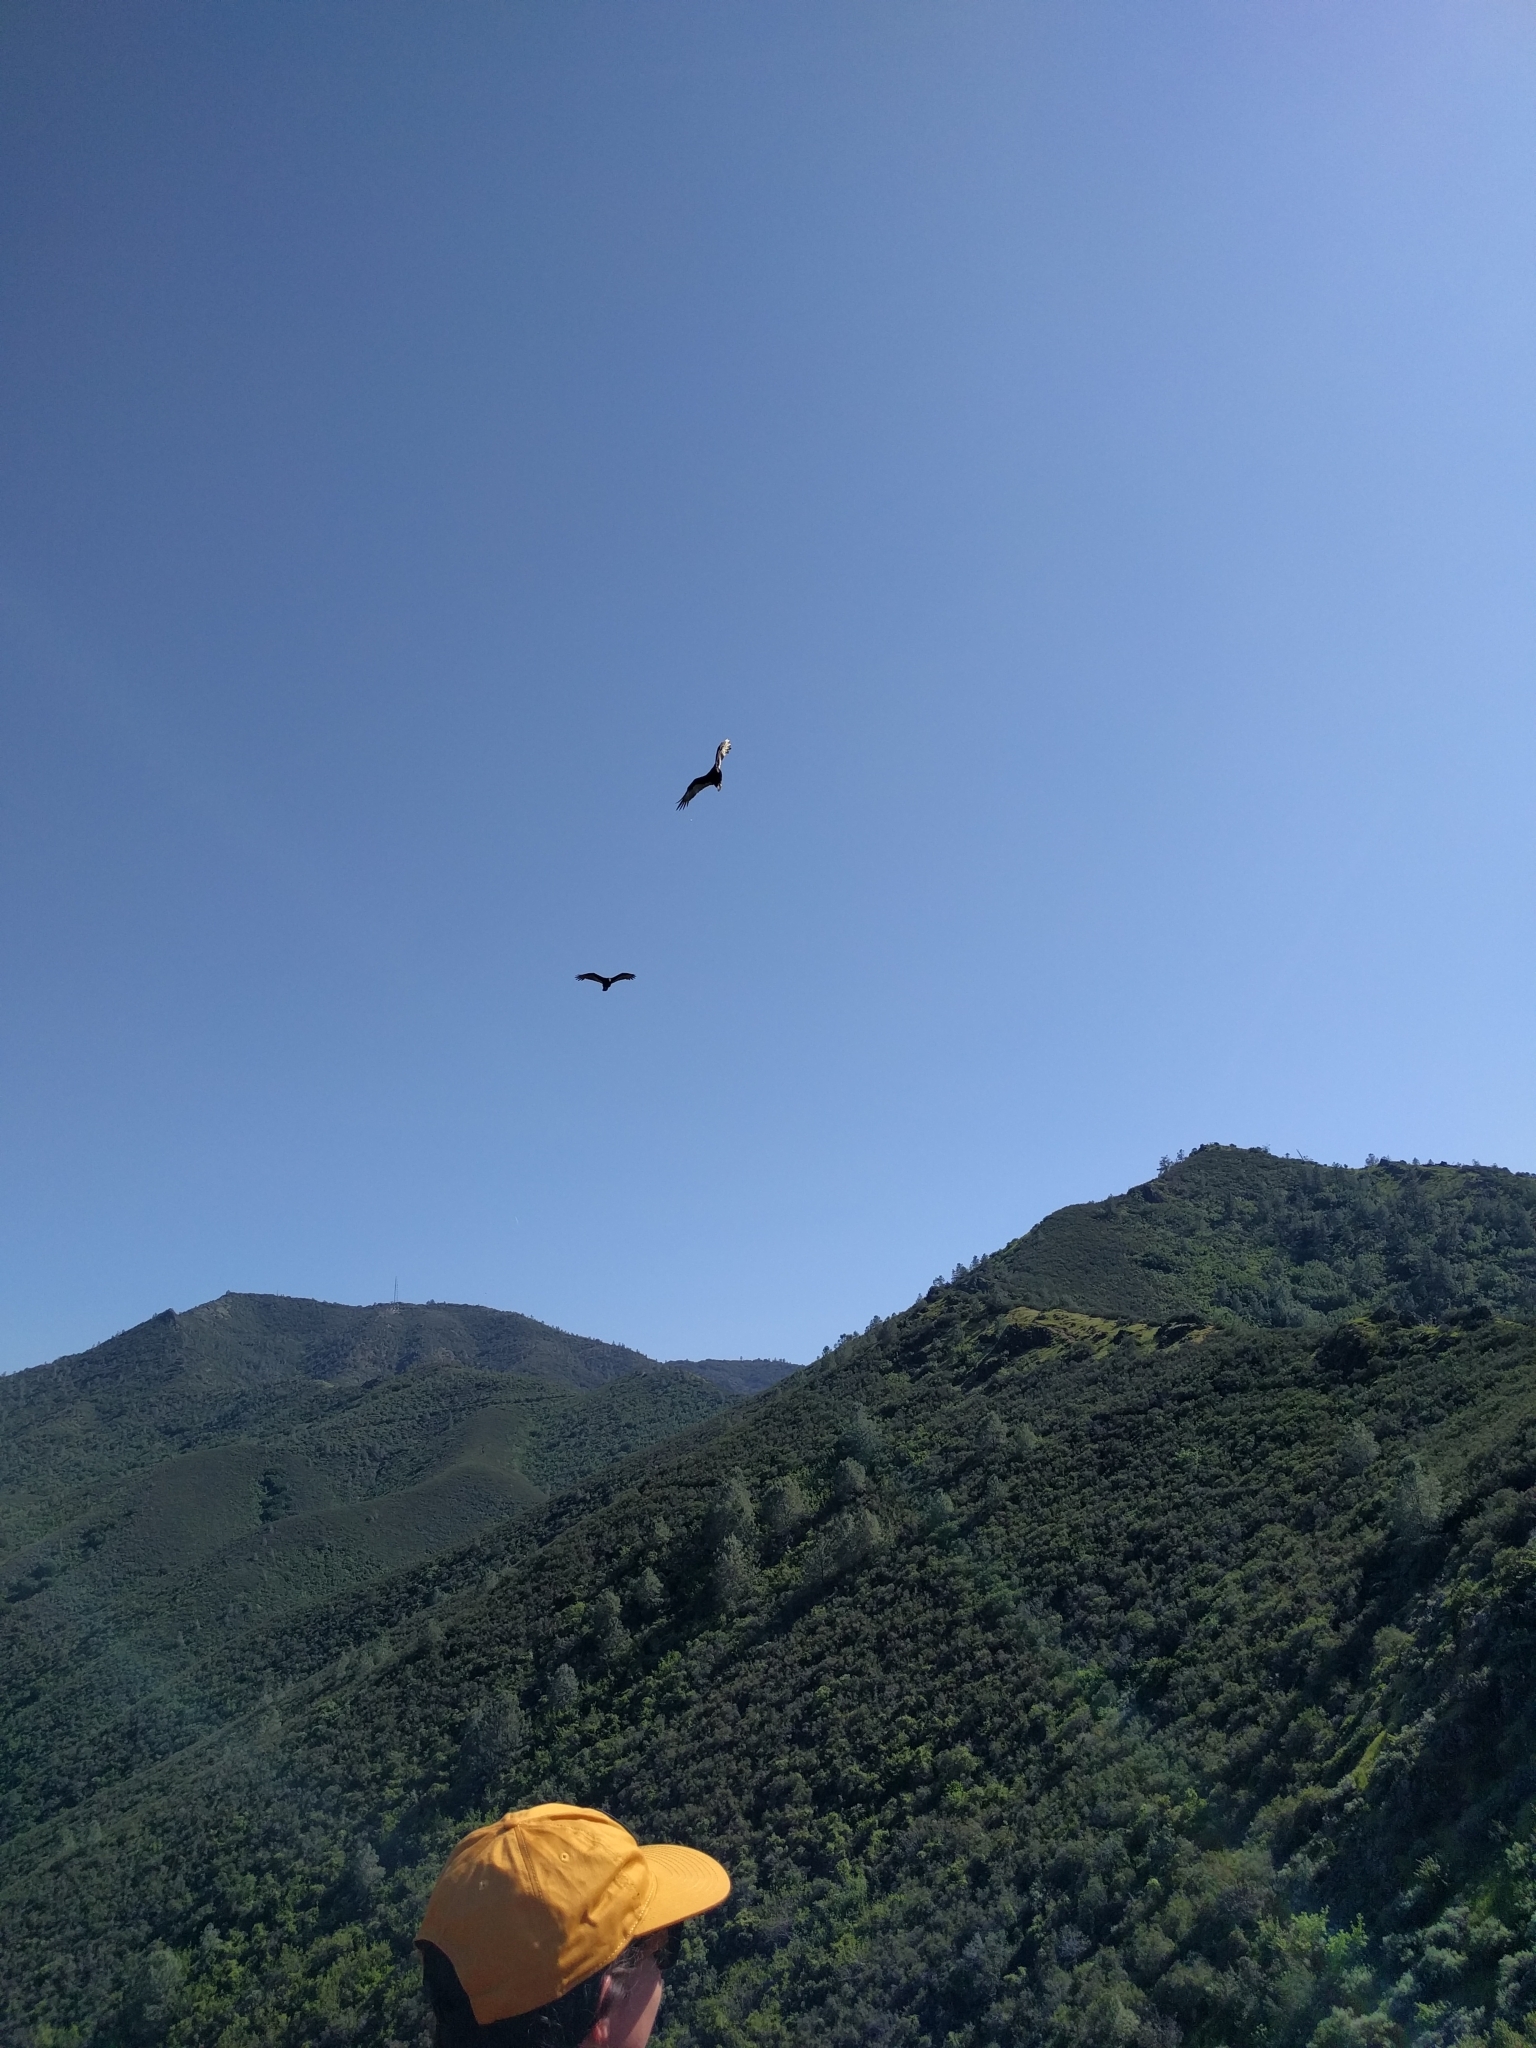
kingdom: Animalia
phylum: Chordata
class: Aves
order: Accipitriformes
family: Cathartidae
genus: Cathartes
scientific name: Cathartes aura
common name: Turkey vulture
